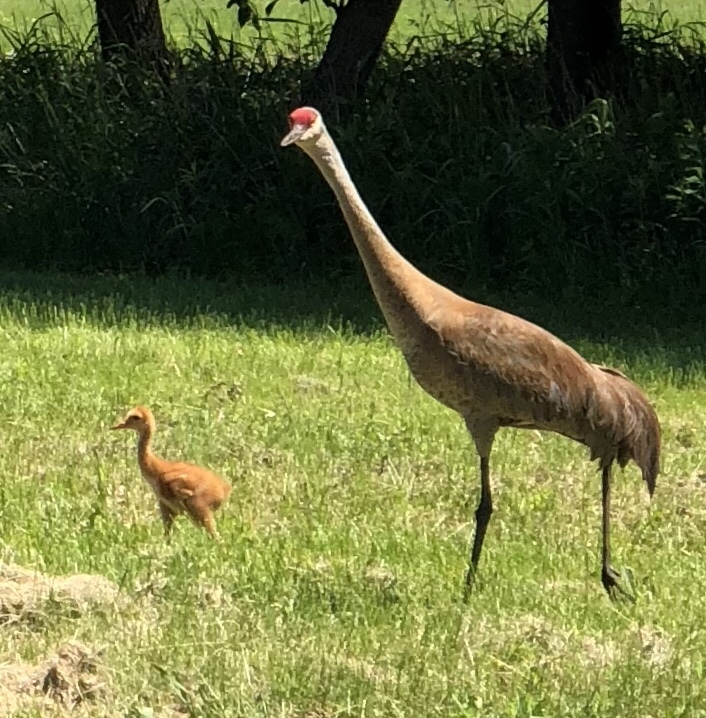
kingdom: Animalia
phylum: Chordata
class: Aves
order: Gruiformes
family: Gruidae
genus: Grus
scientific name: Grus canadensis
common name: Sandhill crane
